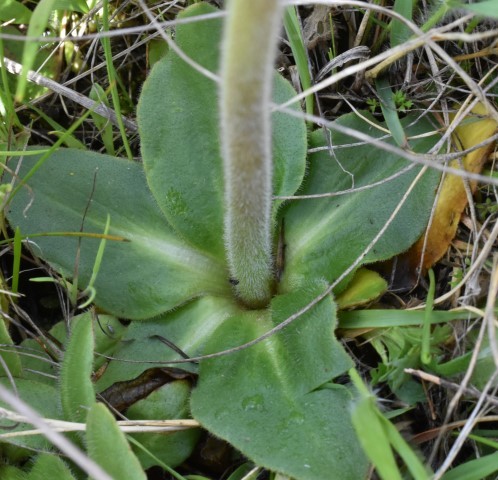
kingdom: Plantae
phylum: Tracheophyta
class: Magnoliopsida
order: Saxifragales
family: Saxifragaceae
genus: Micranthes
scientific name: Micranthes oregana
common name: Bog saxifrage
